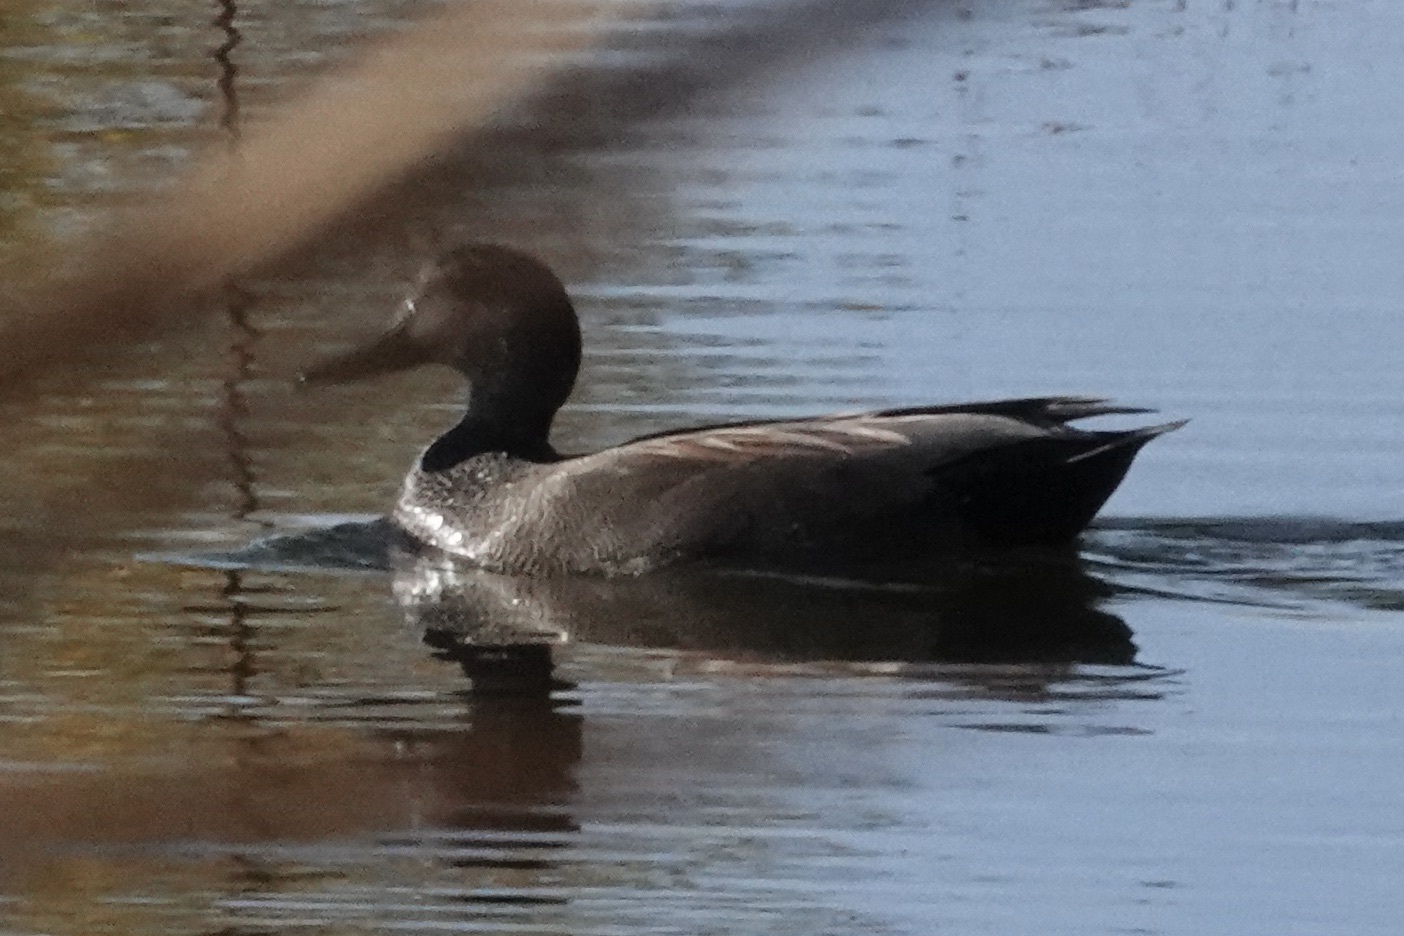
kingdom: Animalia
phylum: Chordata
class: Aves
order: Anseriformes
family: Anatidae
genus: Mareca
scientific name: Mareca strepera
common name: Gadwall
